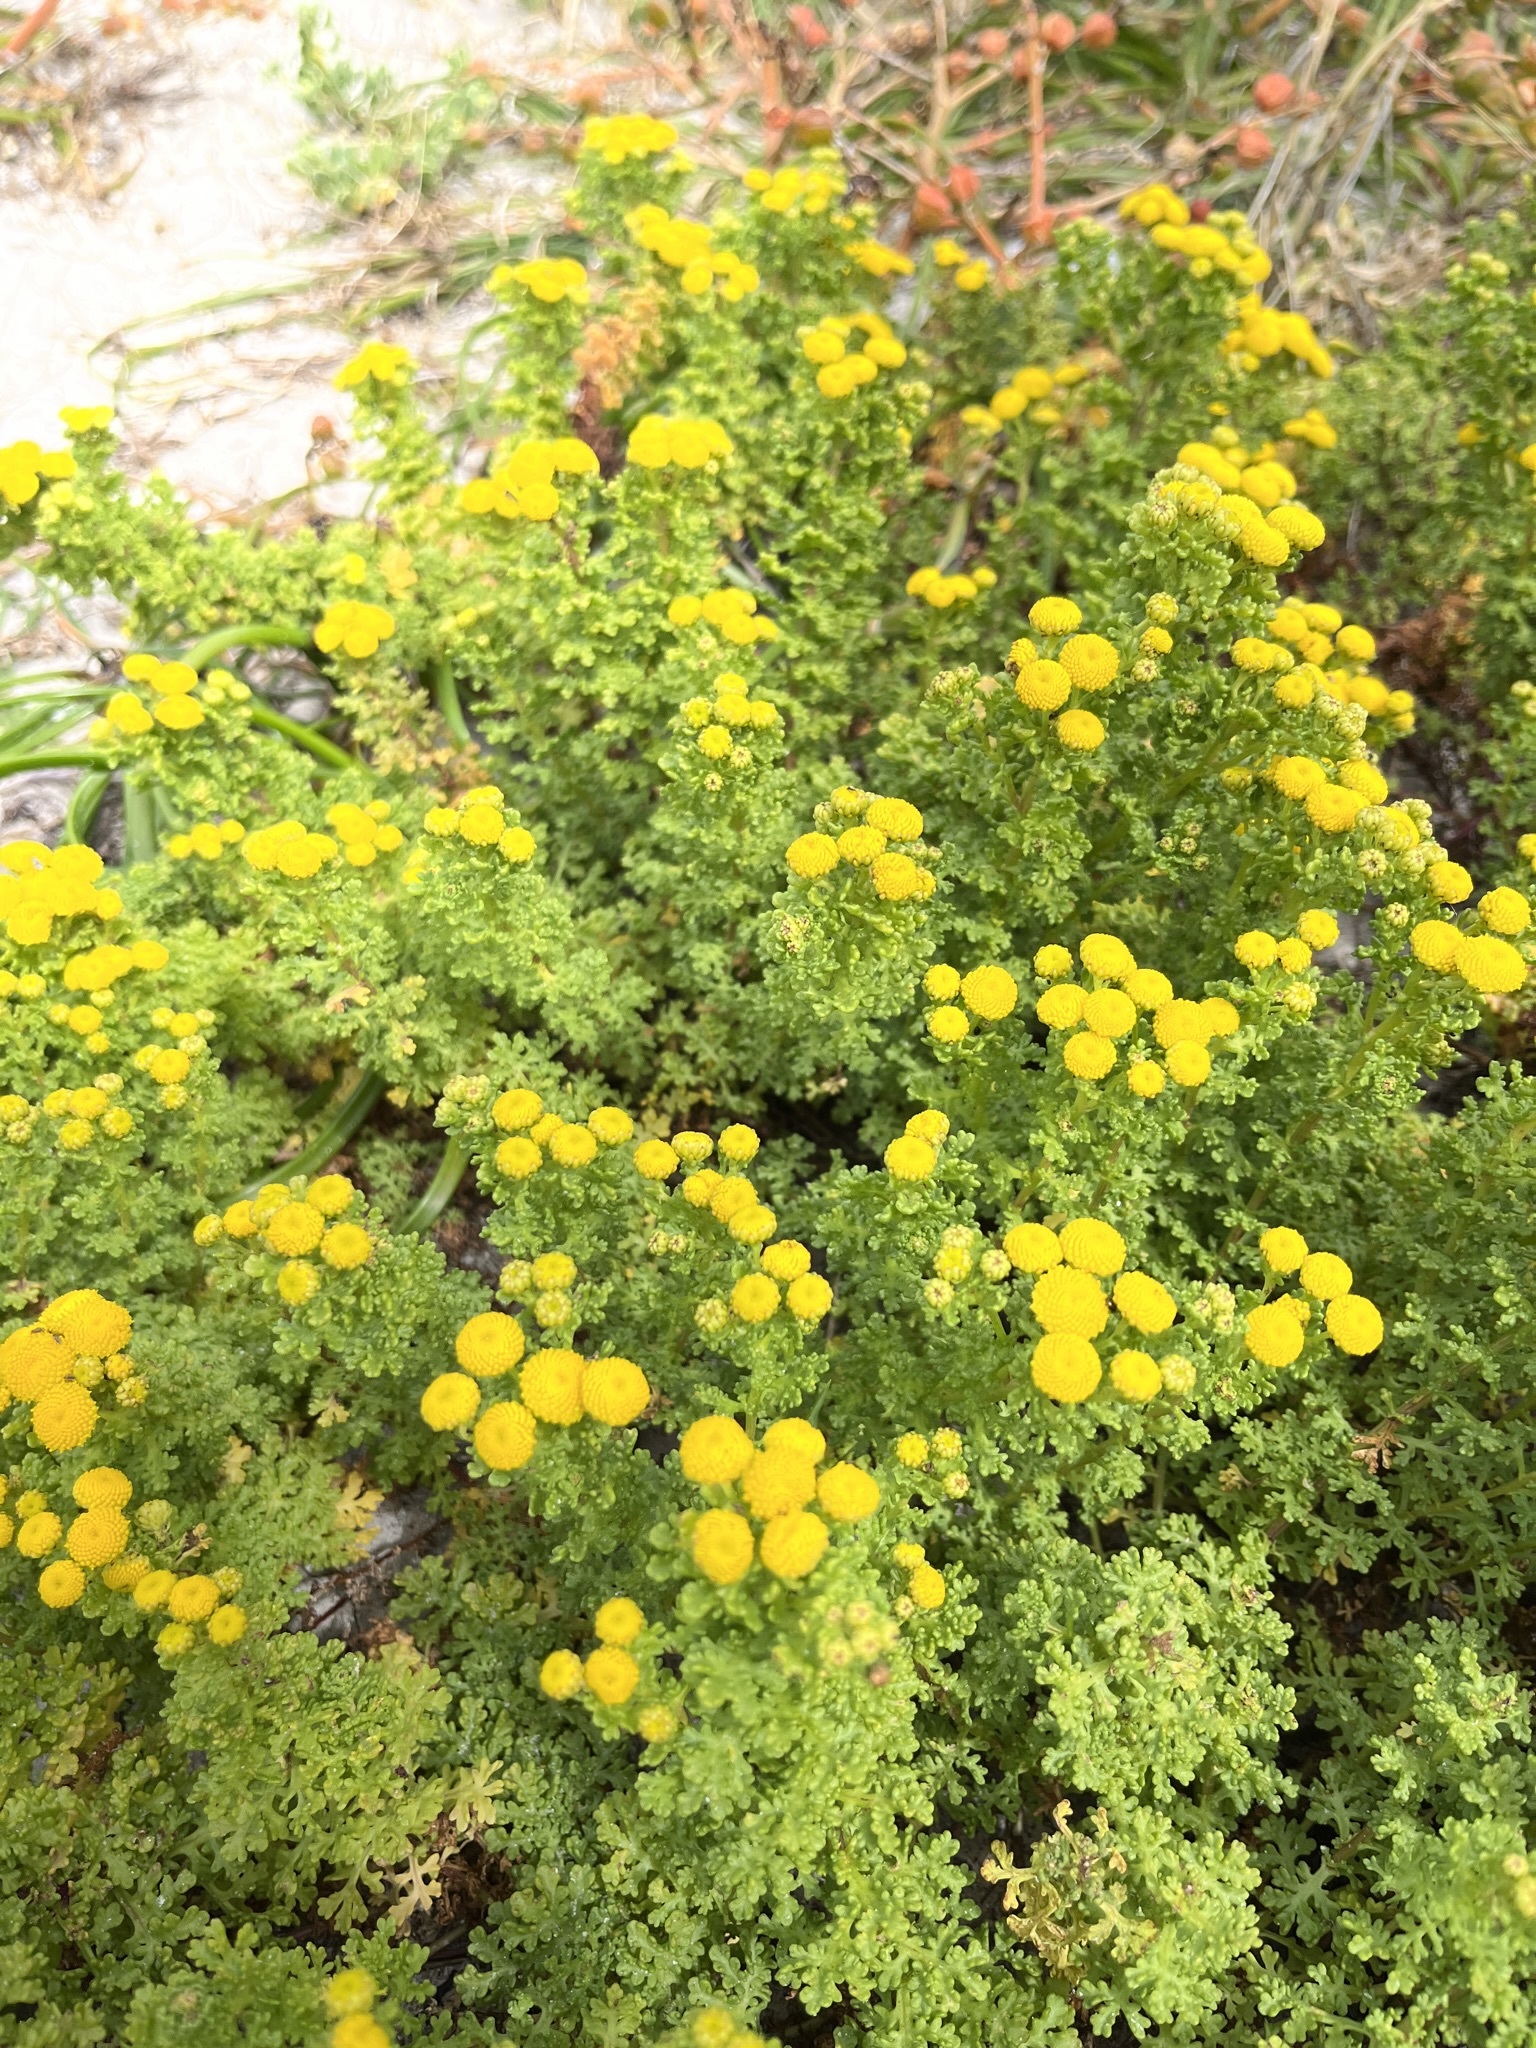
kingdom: Plantae
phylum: Tracheophyta
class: Magnoliopsida
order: Asterales
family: Asteraceae
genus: Oncosiphon
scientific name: Oncosiphon sabulosus
